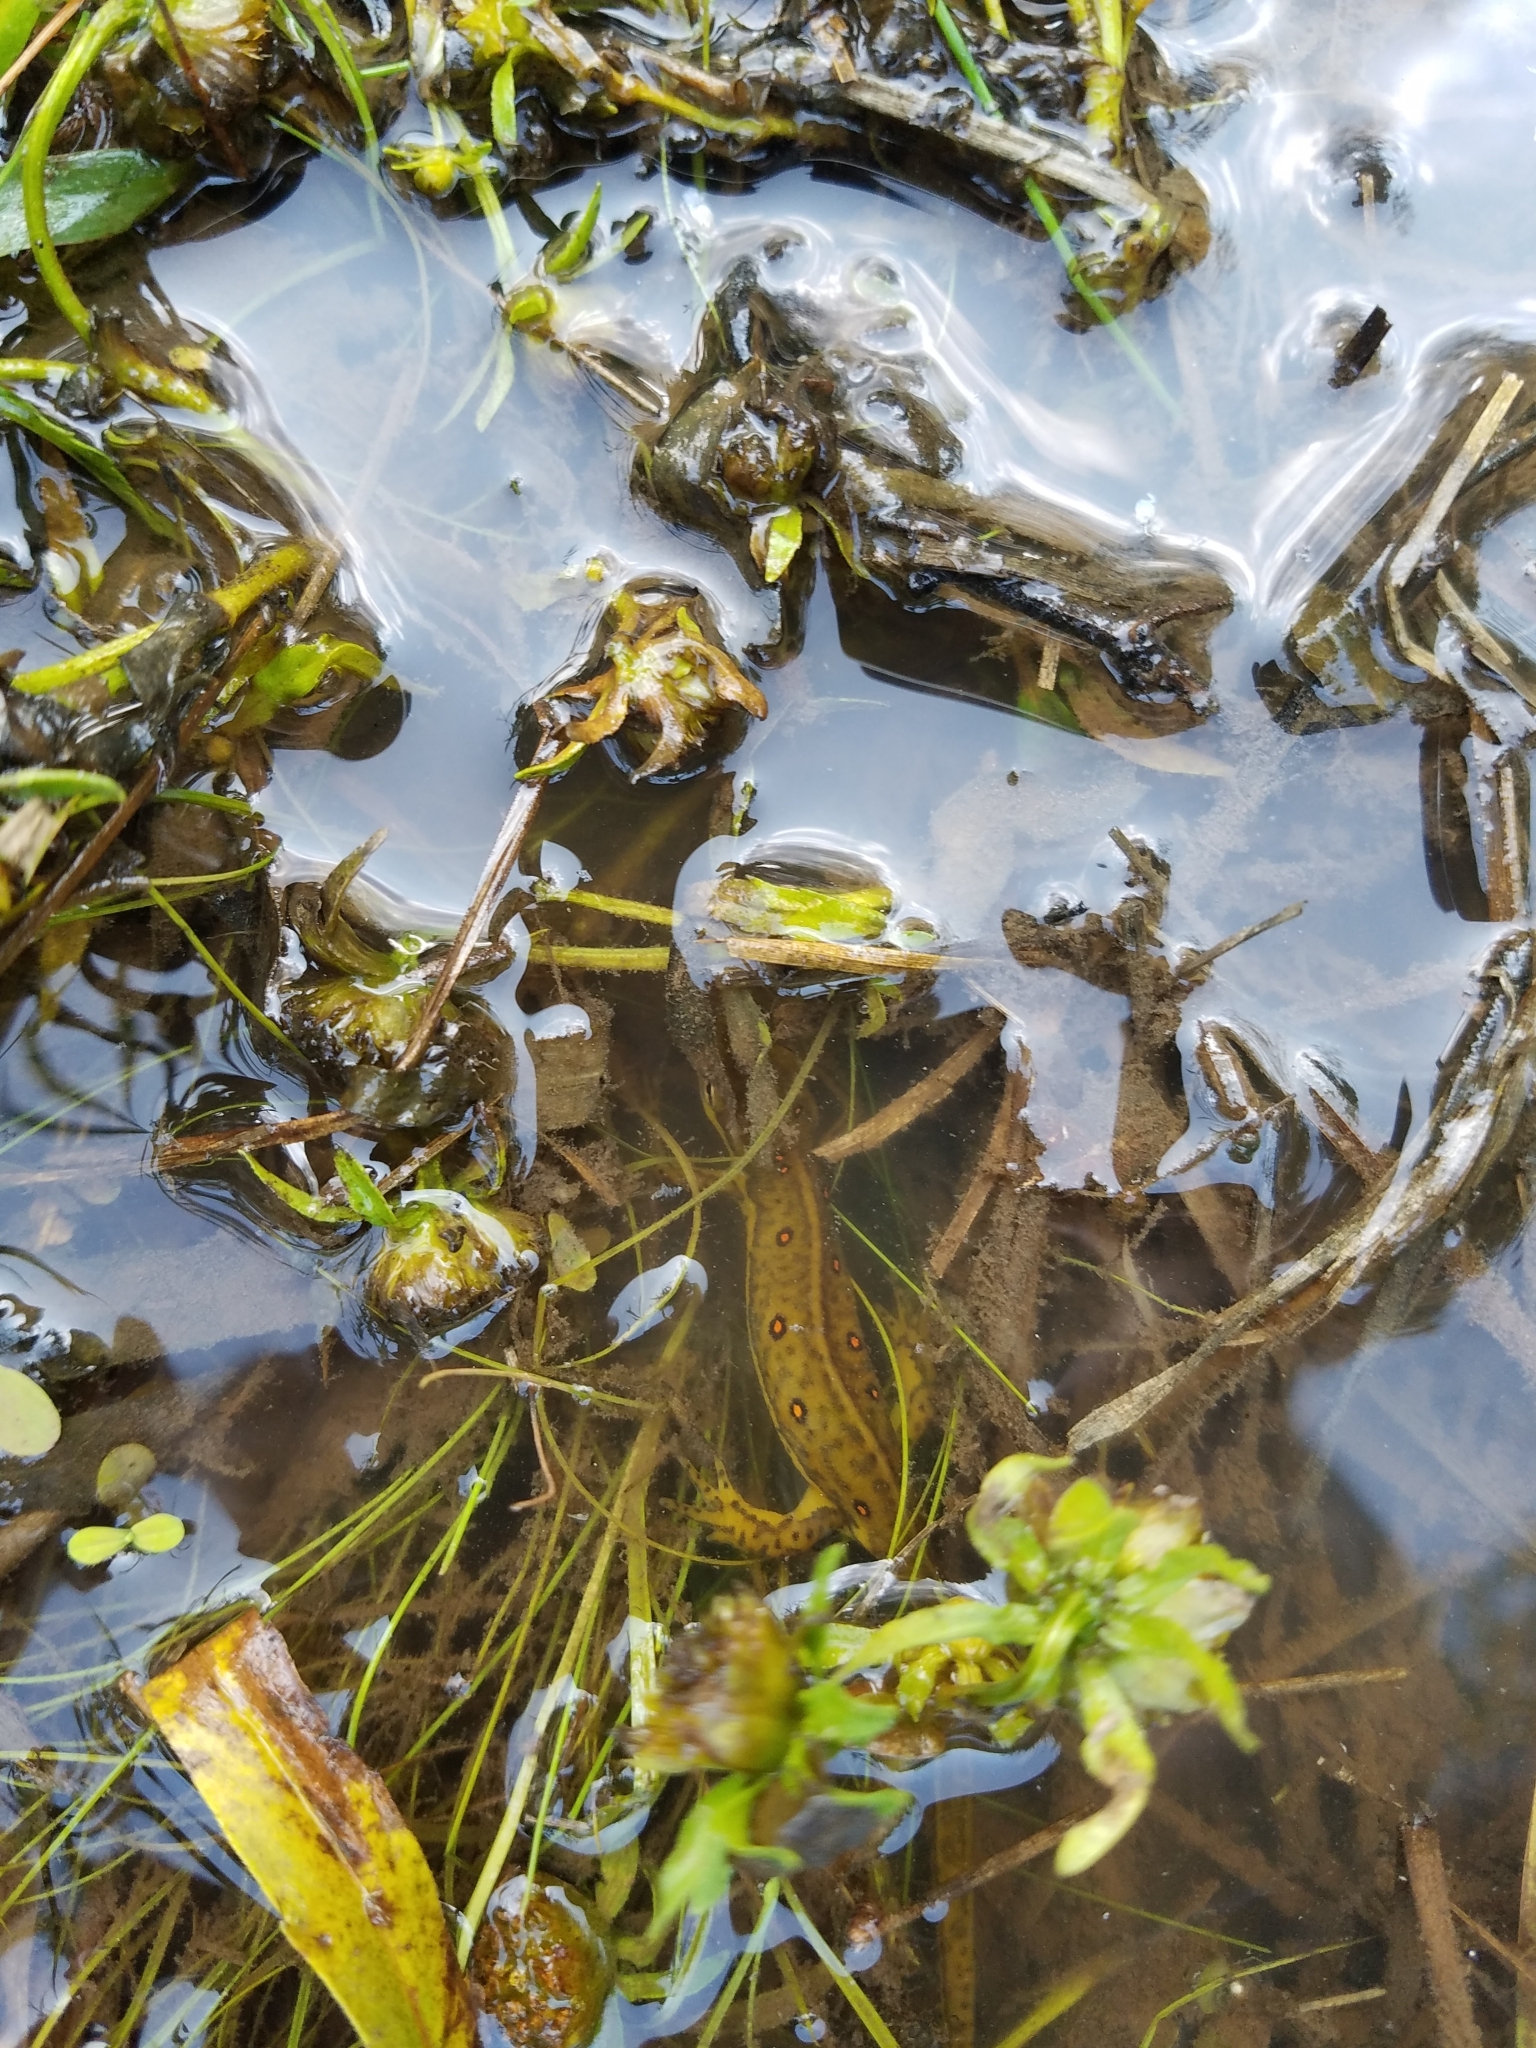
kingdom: Animalia
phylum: Chordata
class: Amphibia
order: Caudata
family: Salamandridae
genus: Notophthalmus
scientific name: Notophthalmus viridescens
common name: Eastern newt
